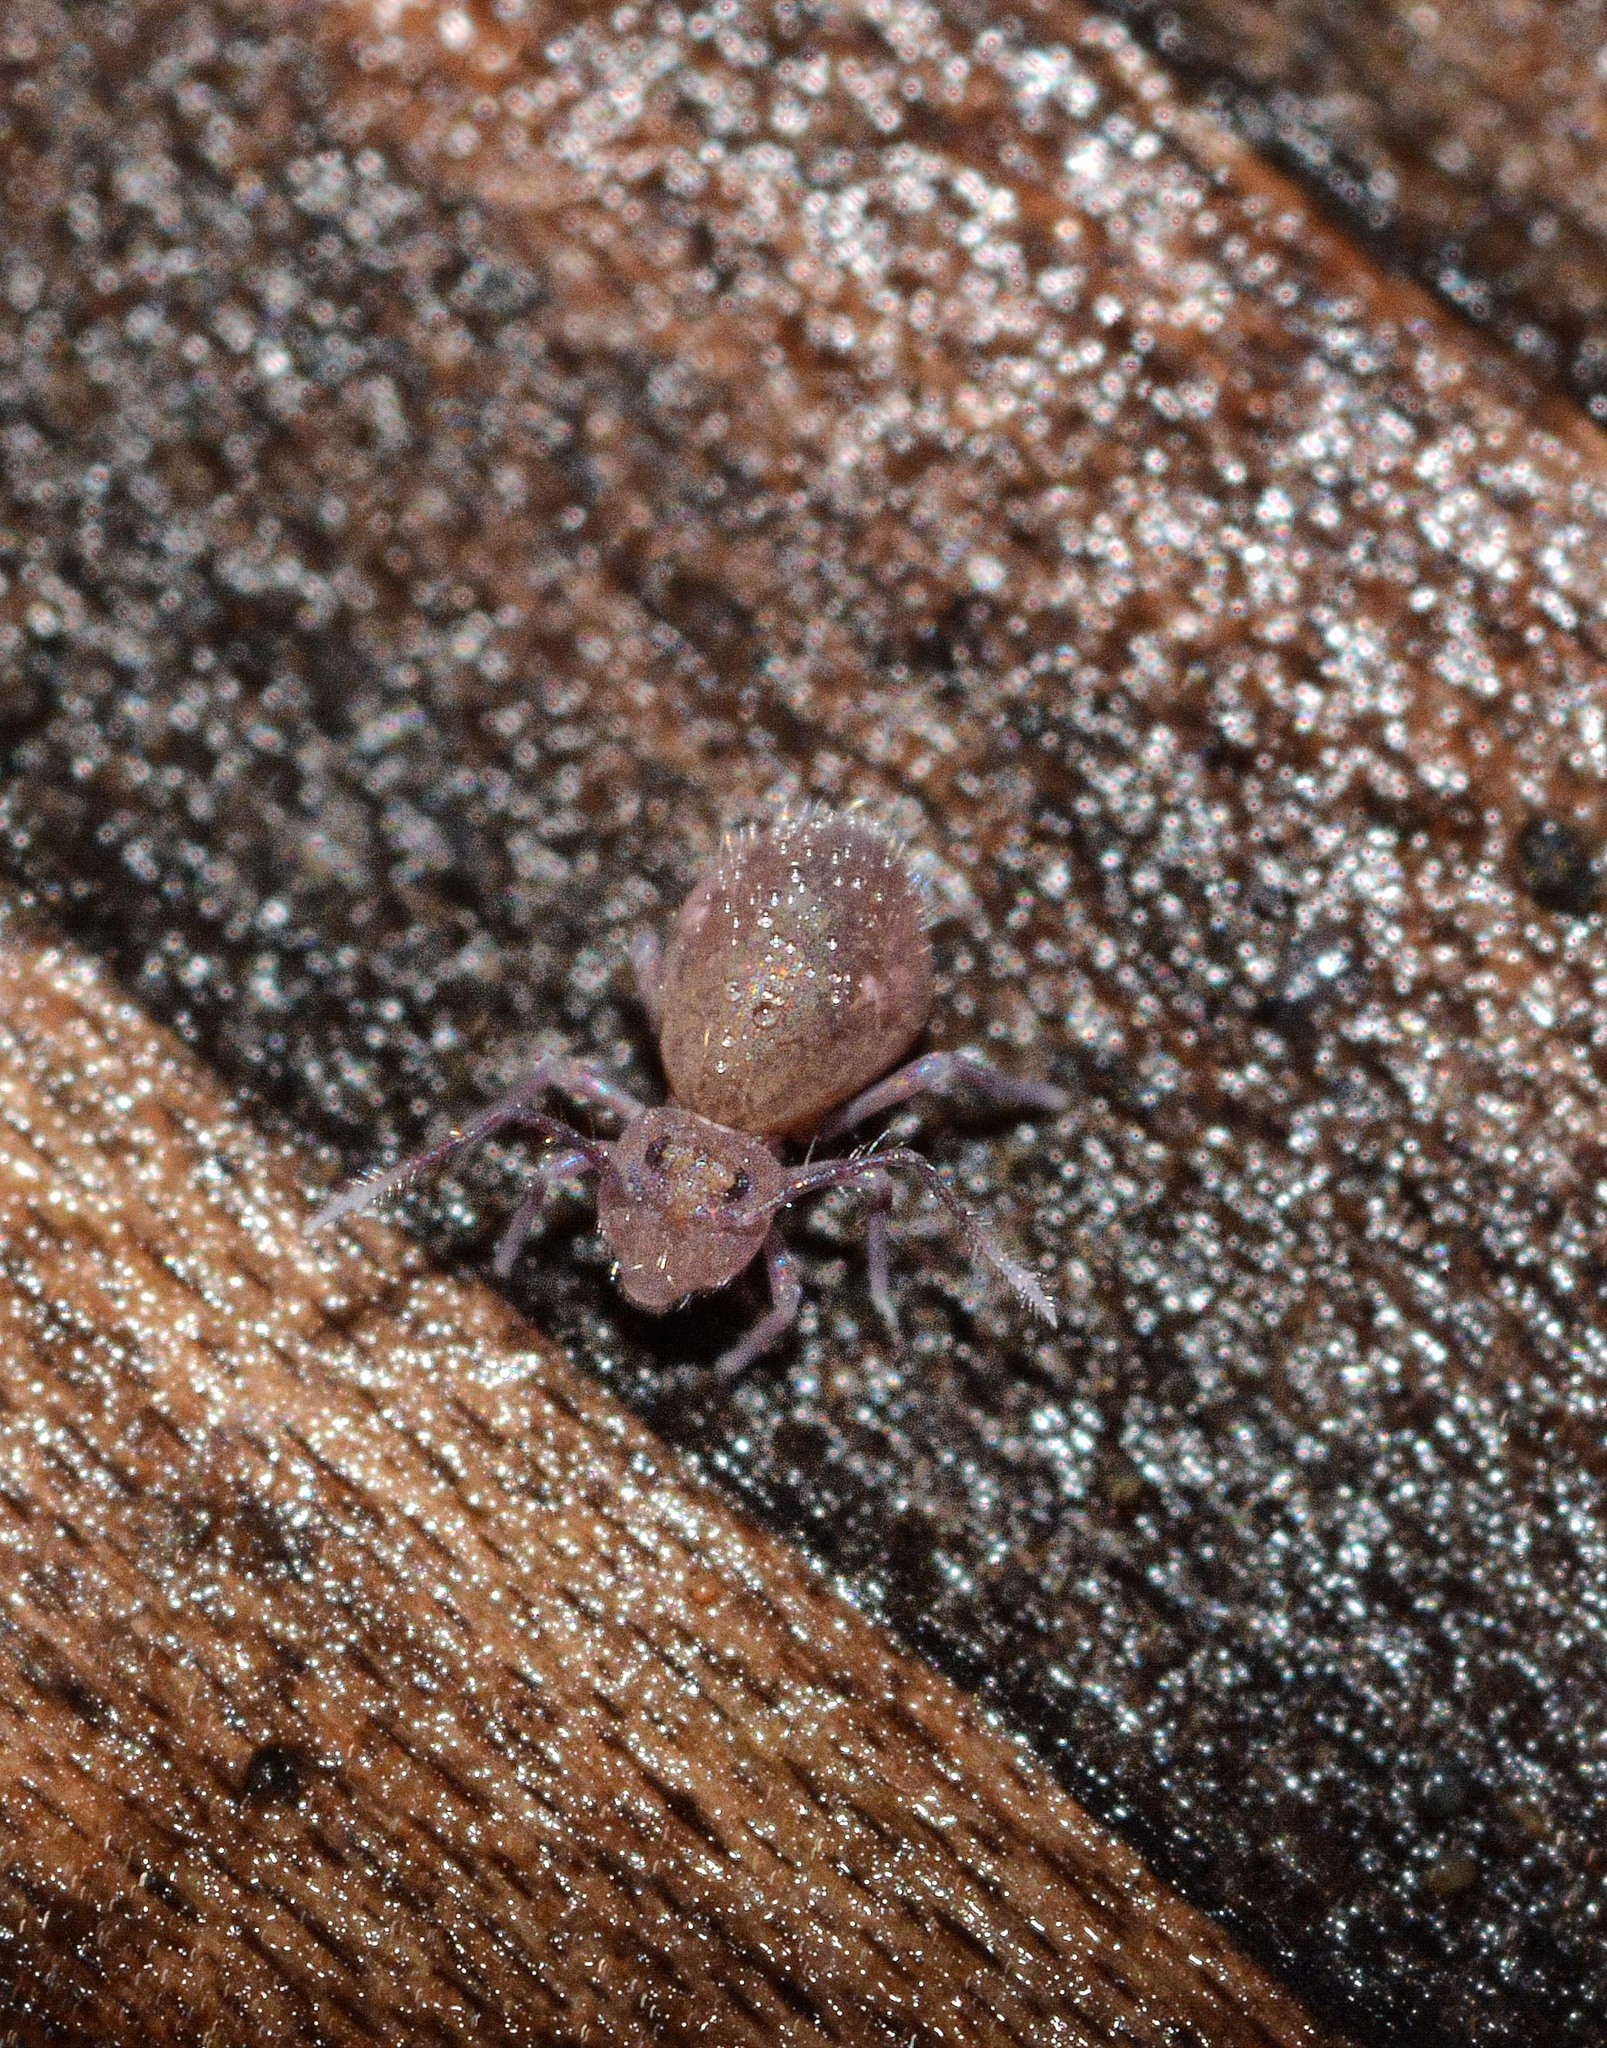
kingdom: Animalia
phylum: Arthropoda
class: Collembola
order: Symphypleona
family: Dicyrtomidae
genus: Dicyrtoma
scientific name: Dicyrtoma fusca
